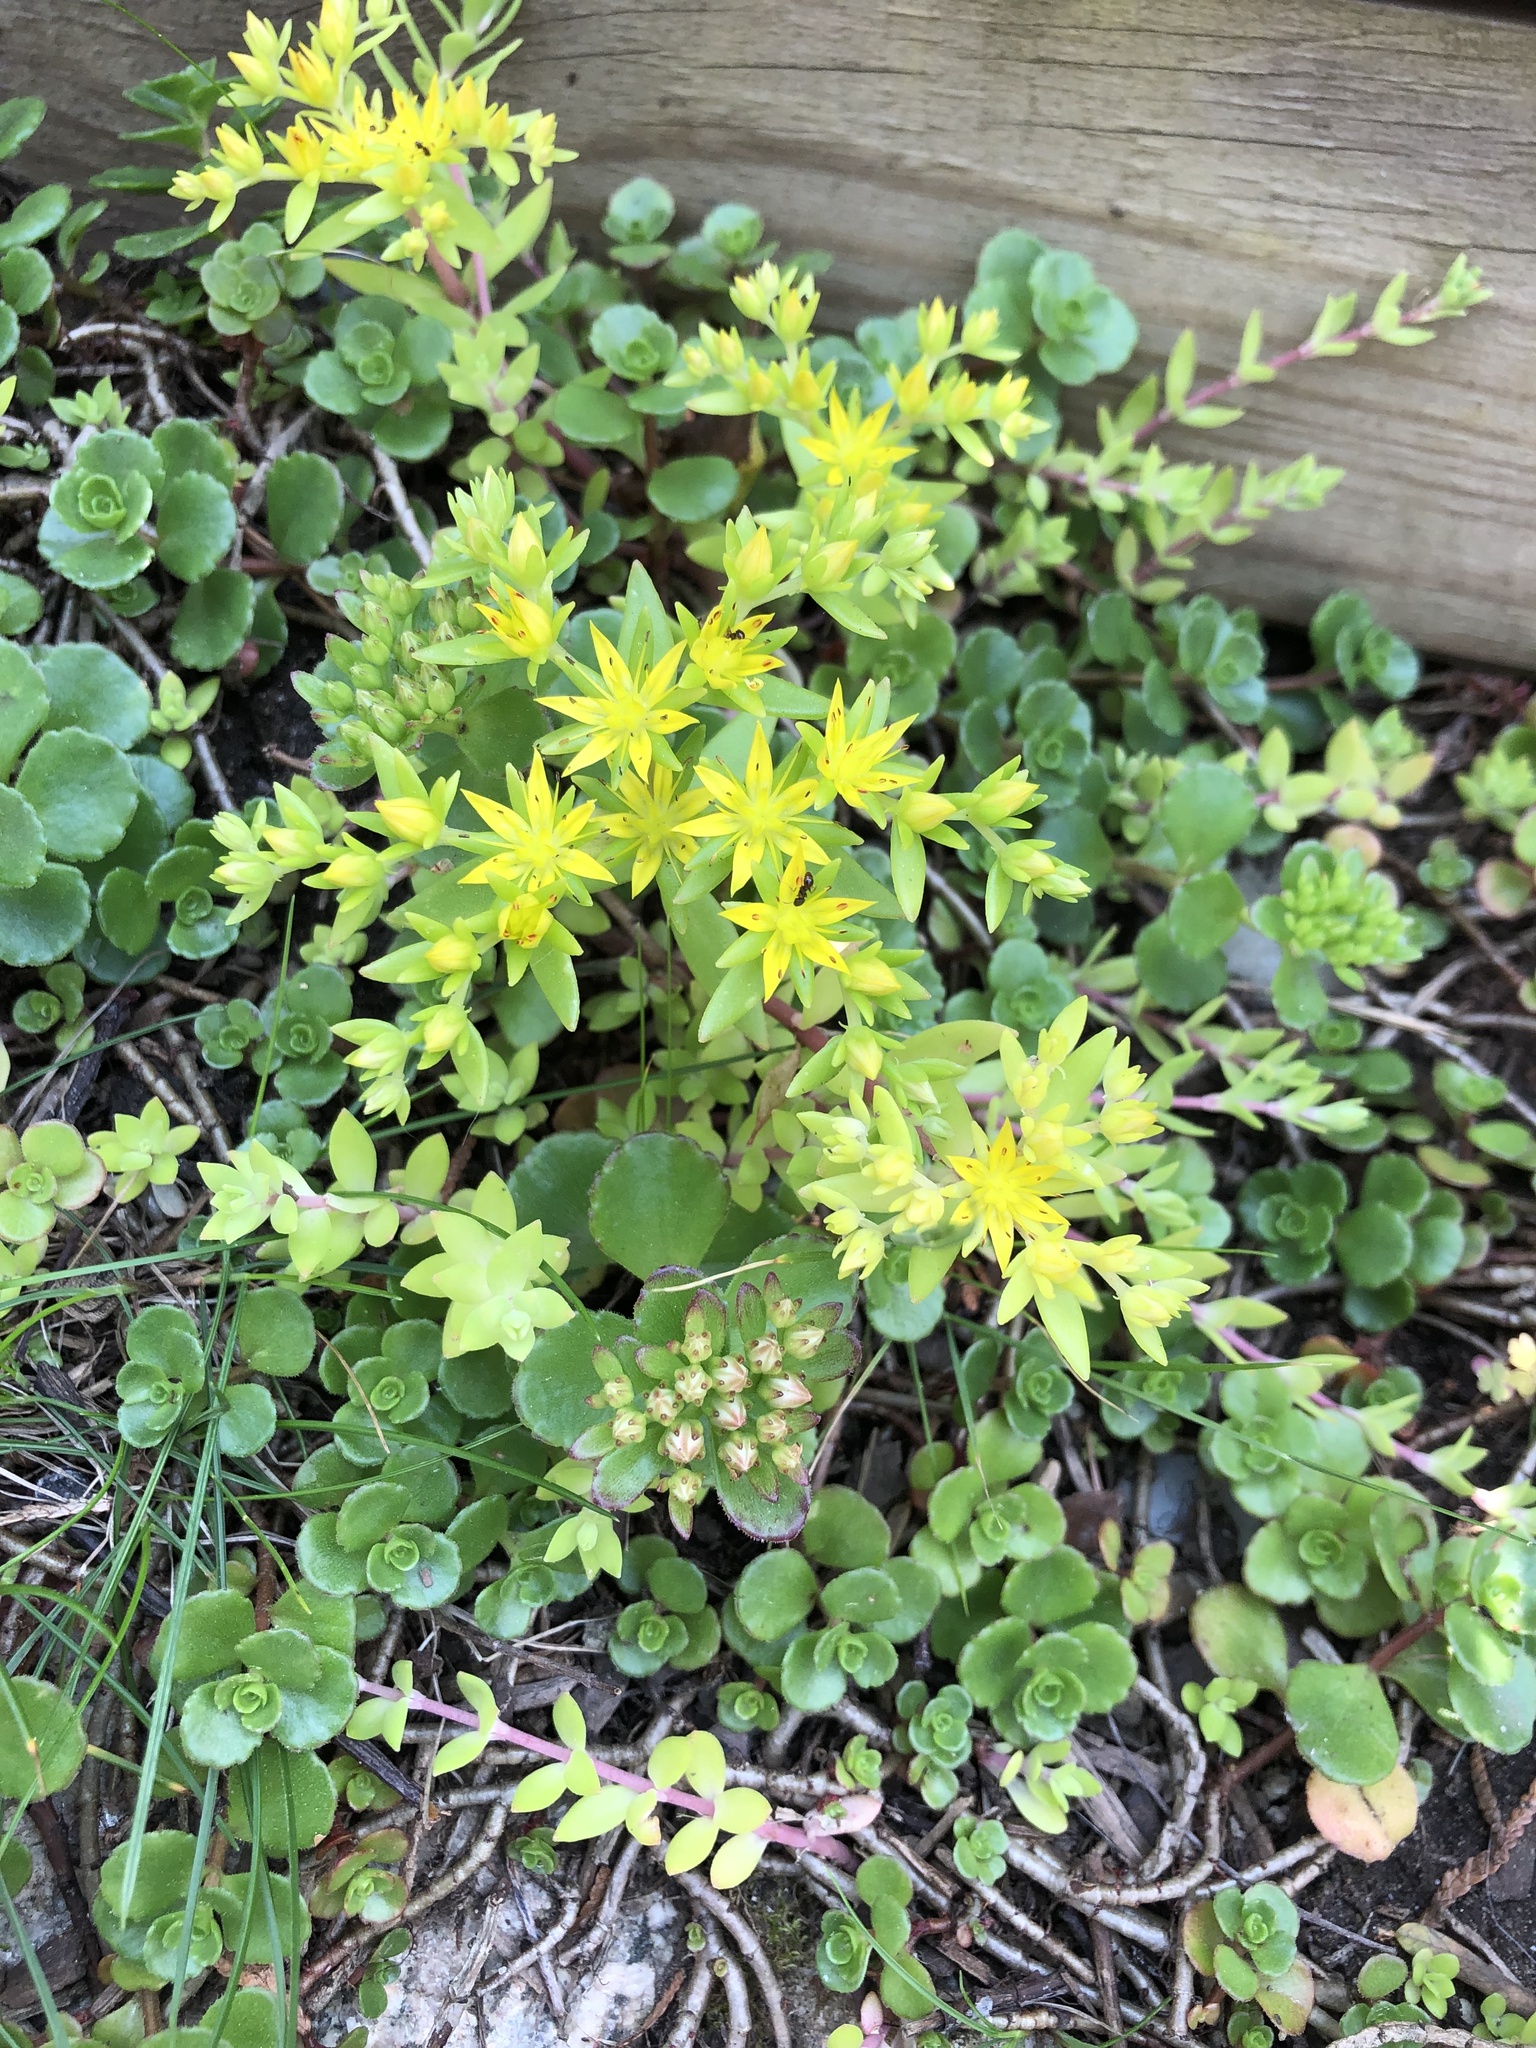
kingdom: Plantae
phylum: Tracheophyta
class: Magnoliopsida
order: Saxifragales
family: Crassulaceae
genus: Sedum
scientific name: Sedum sarmentosum
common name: Stringy stonecrop
